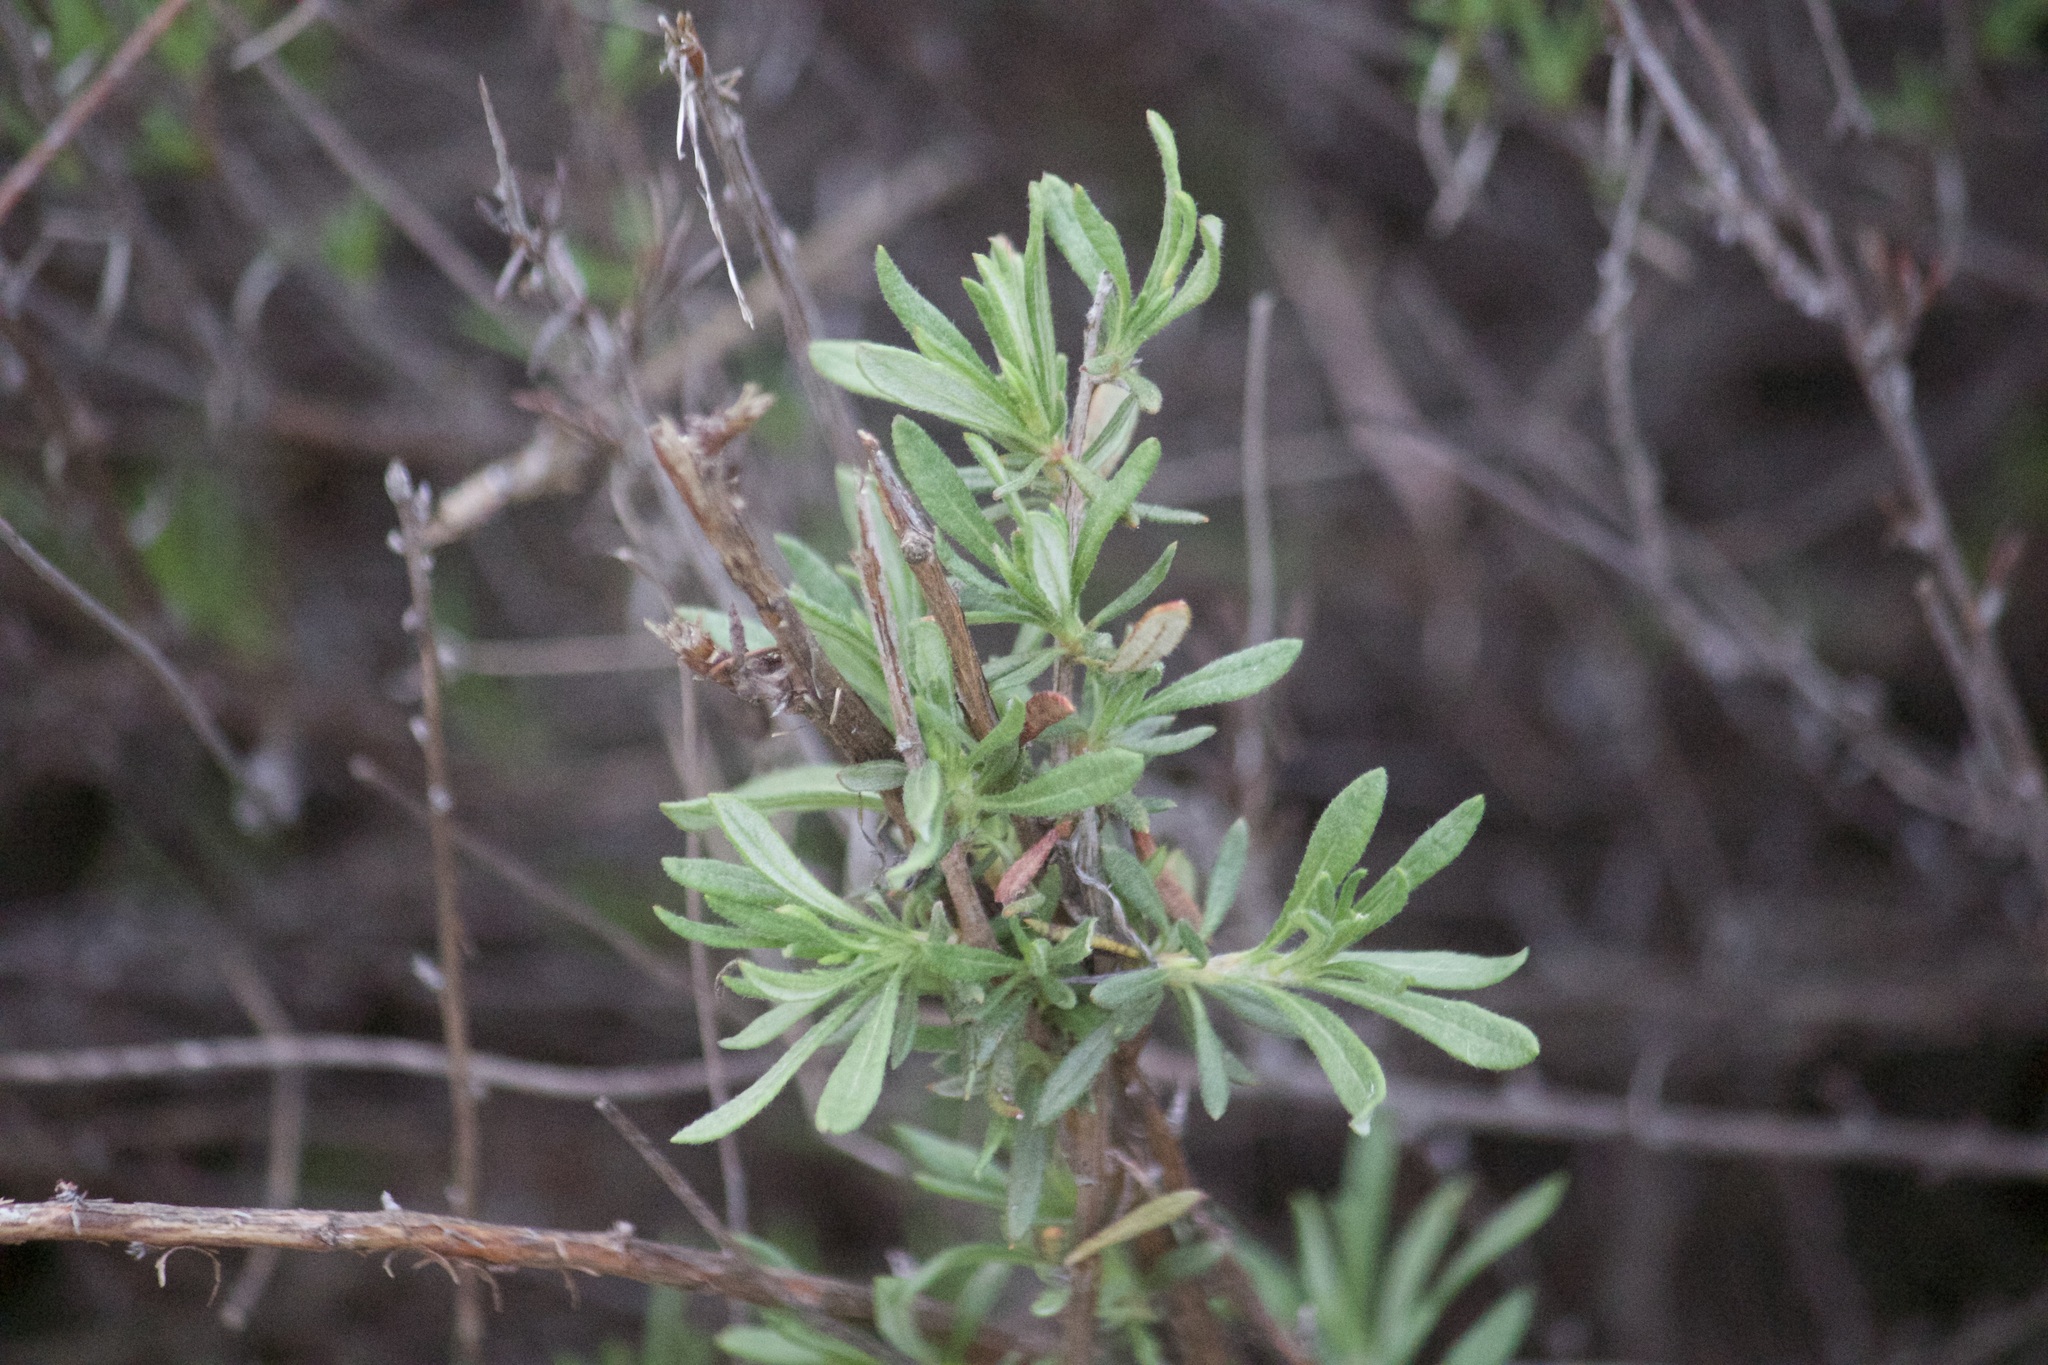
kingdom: Plantae
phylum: Tracheophyta
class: Magnoliopsida
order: Caryophyllales
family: Polygonaceae
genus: Eriogonum
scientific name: Eriogonum fasciculatum
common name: California wild buckwheat
